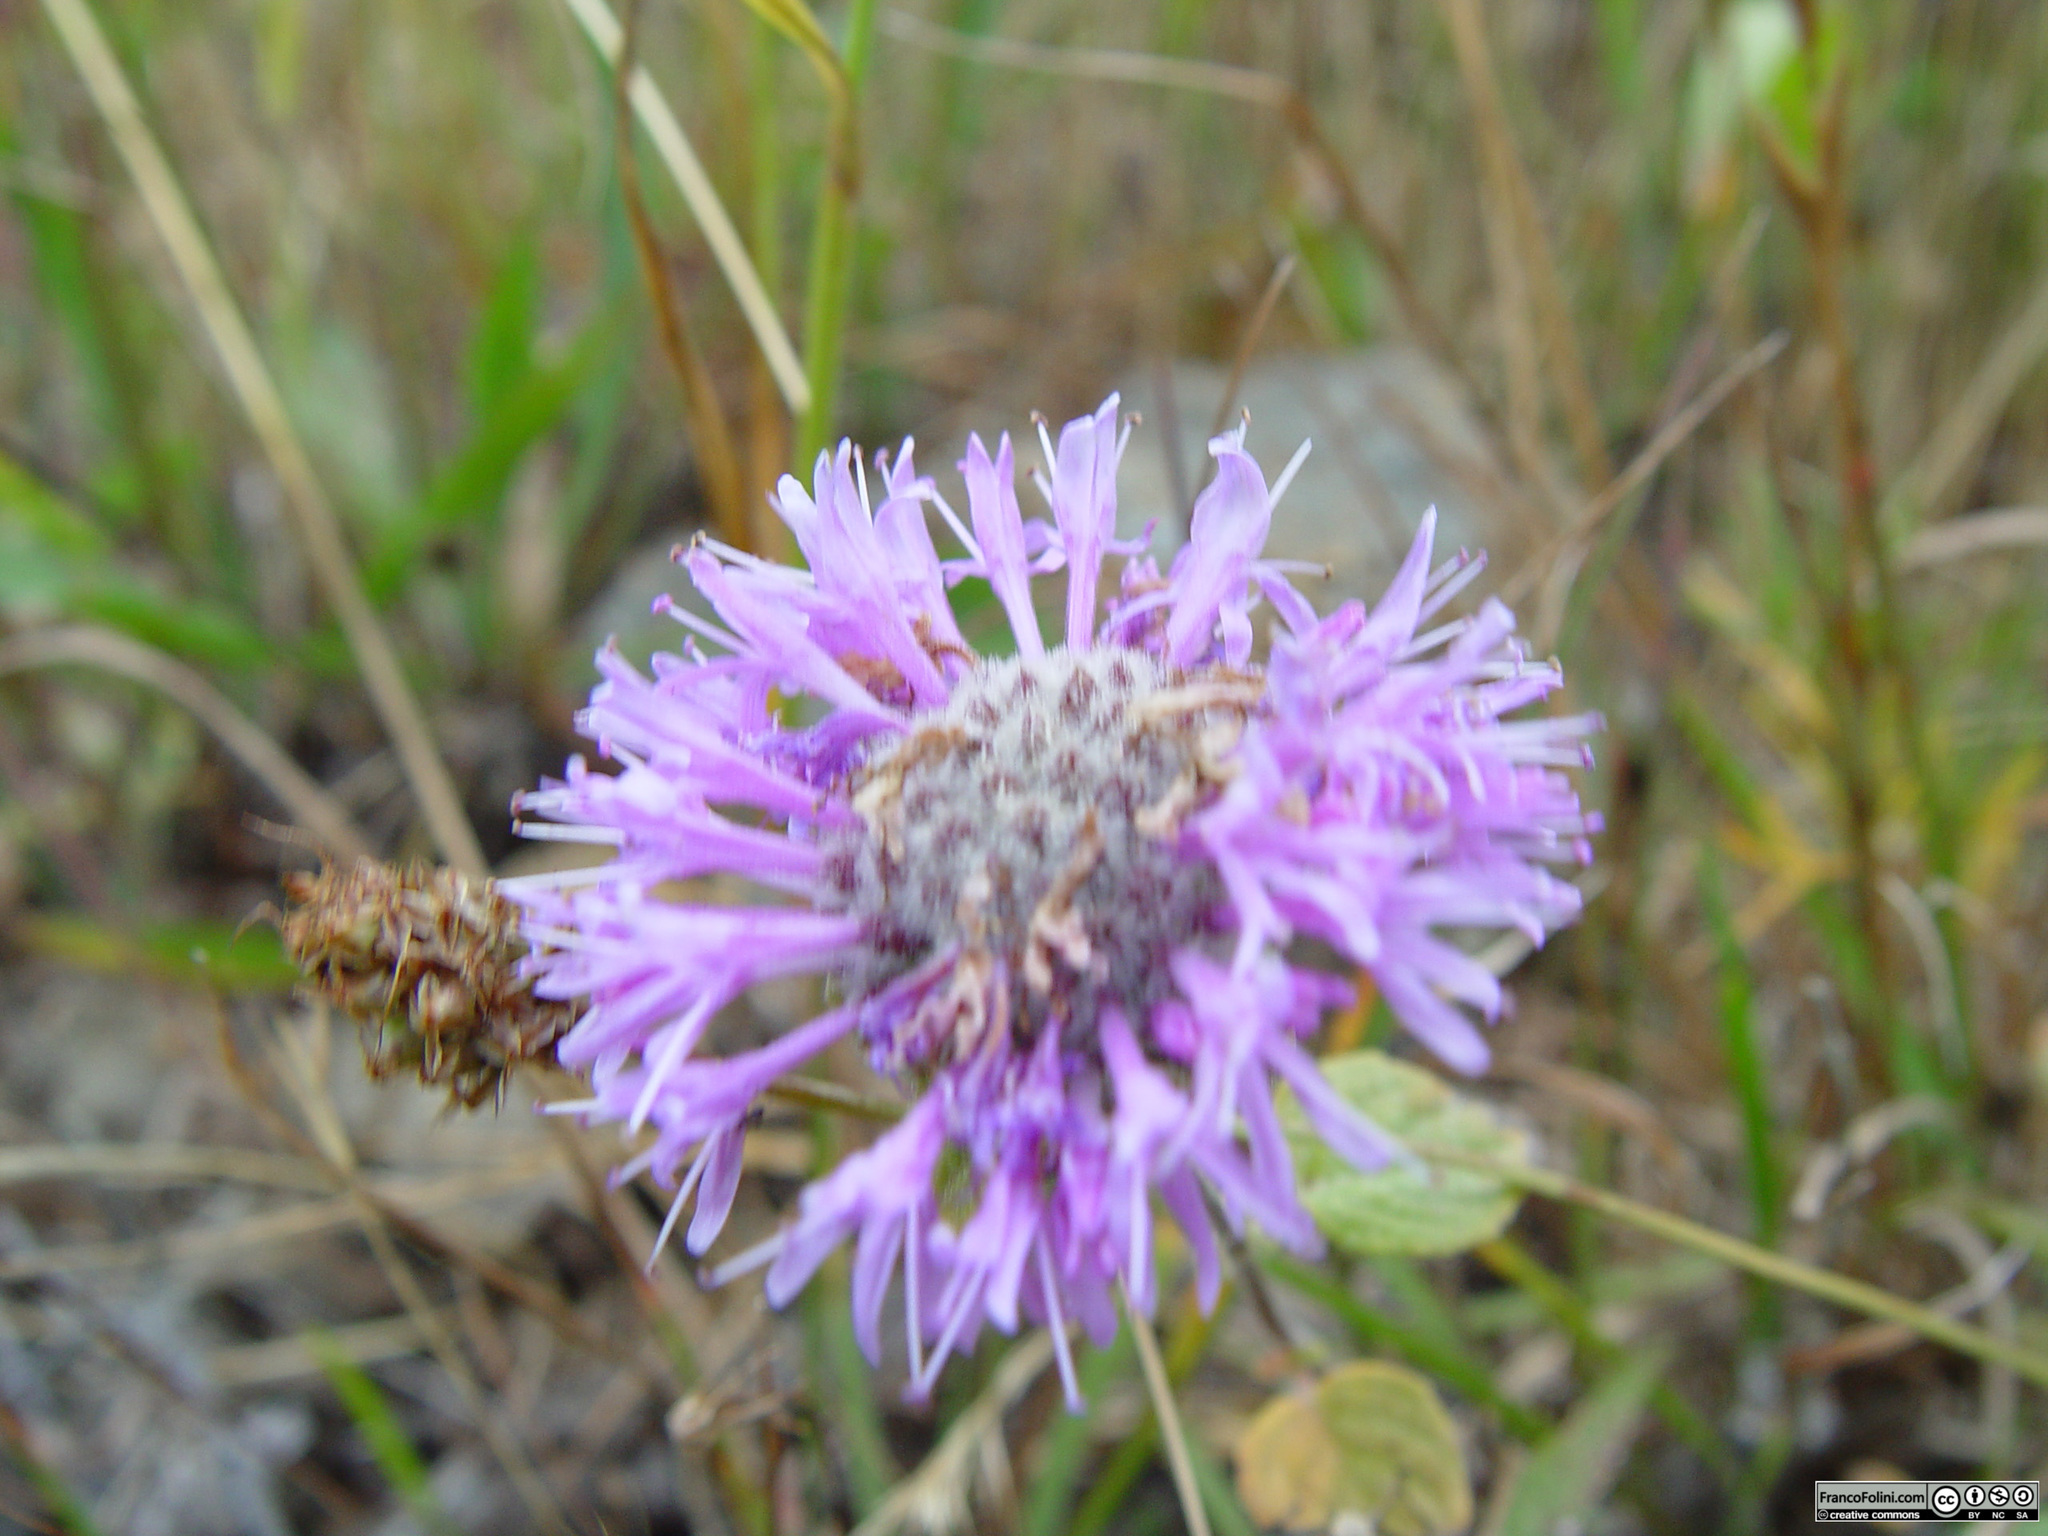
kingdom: Plantae
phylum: Tracheophyta
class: Magnoliopsida
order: Lamiales
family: Lamiaceae
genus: Monardella
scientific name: Monardella odoratissima
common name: Pacific monardella
